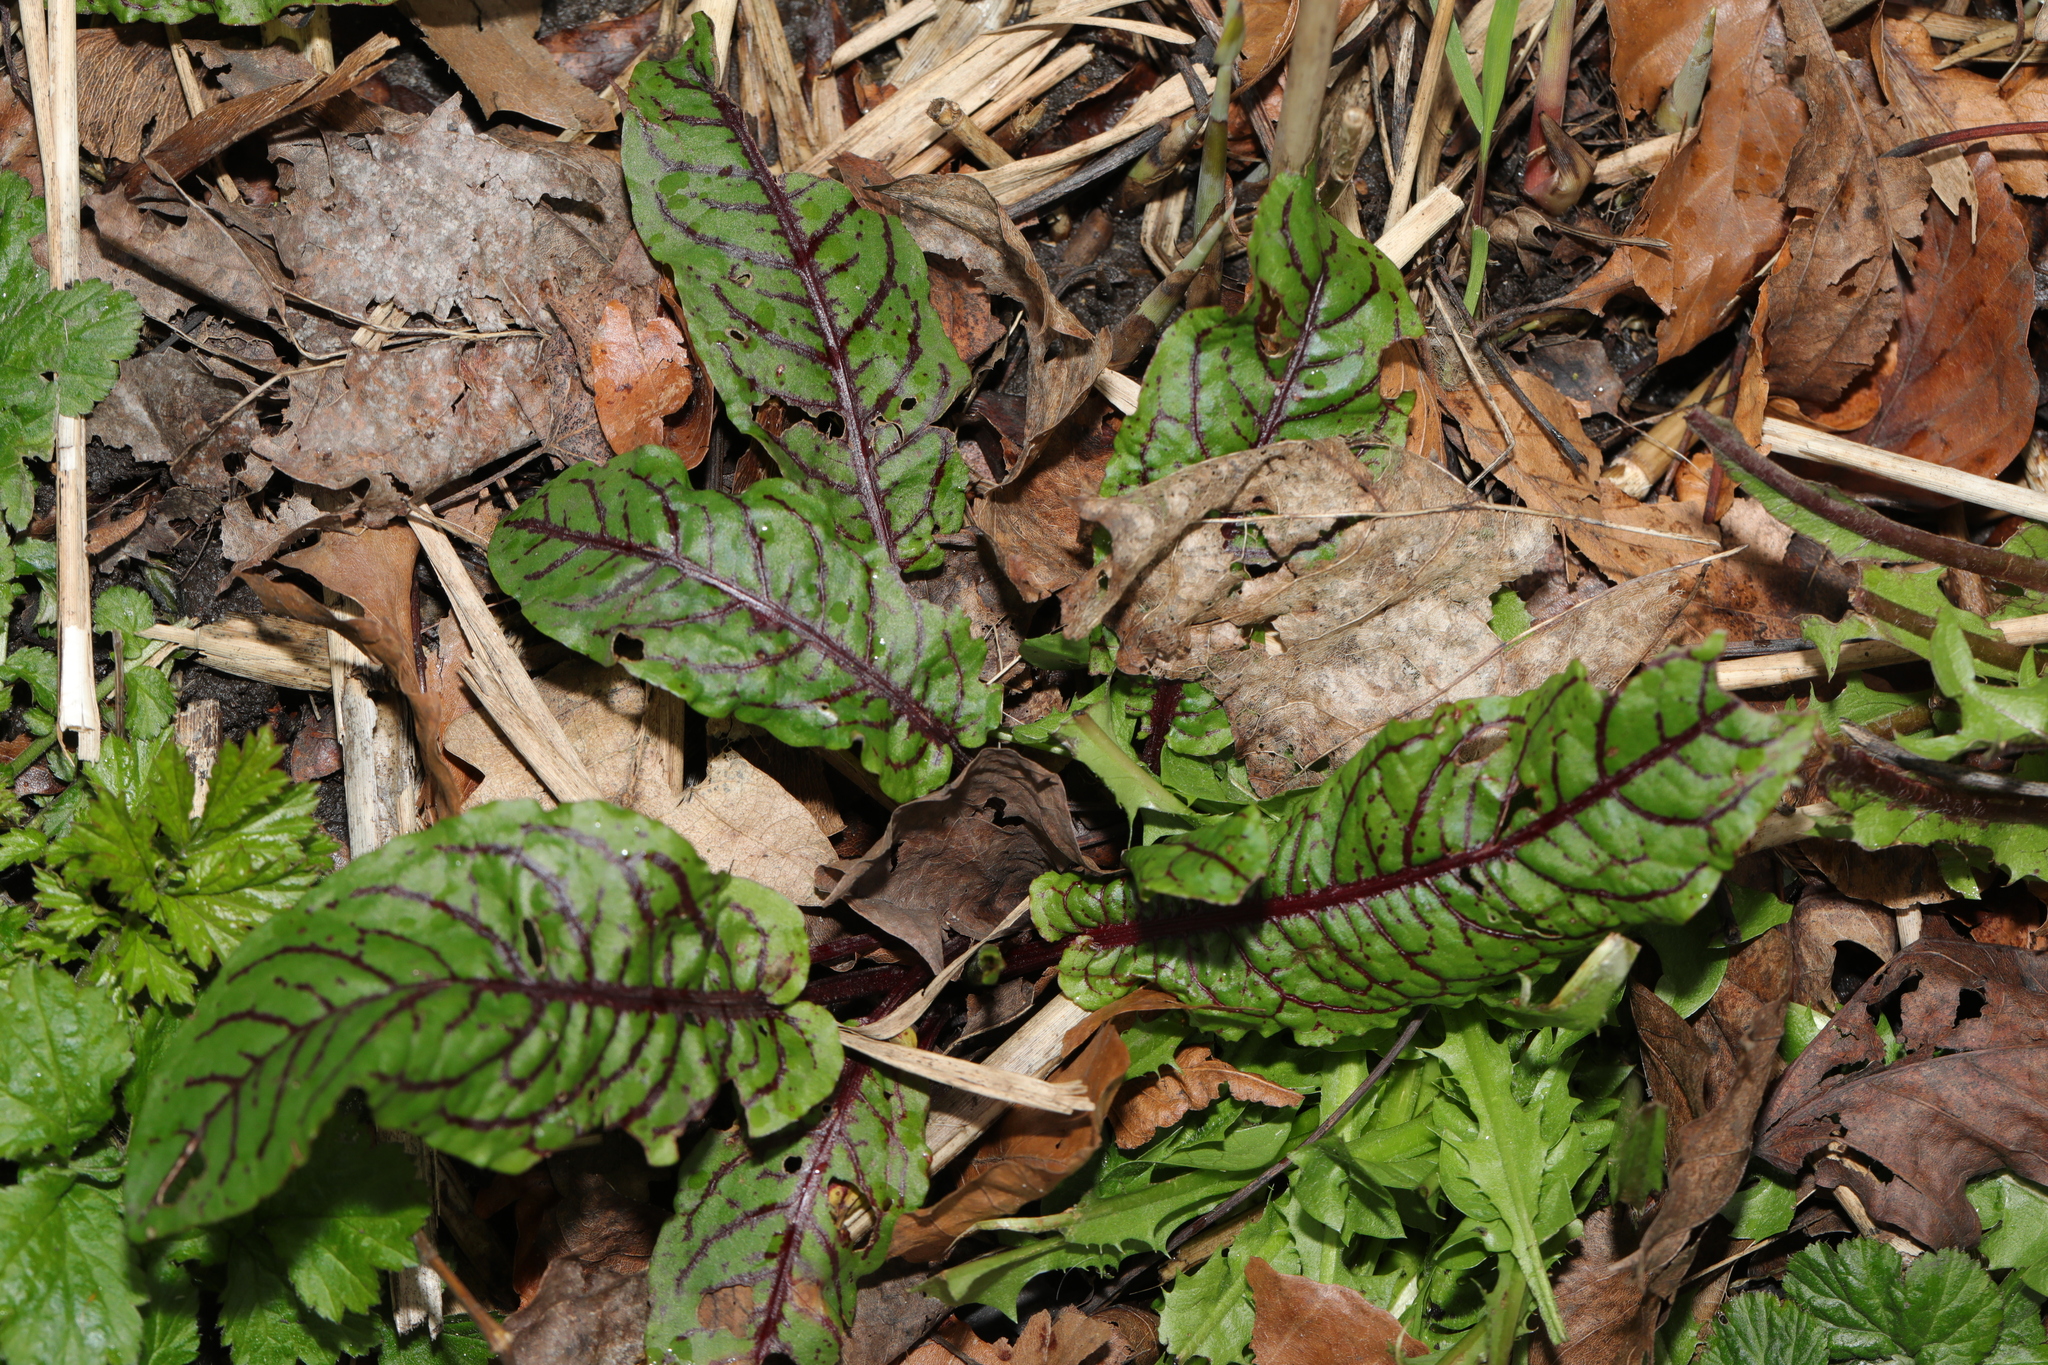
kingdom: Plantae
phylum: Tracheophyta
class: Magnoliopsida
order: Caryophyllales
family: Polygonaceae
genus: Rumex
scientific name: Rumex sanguineus
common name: Wood dock
